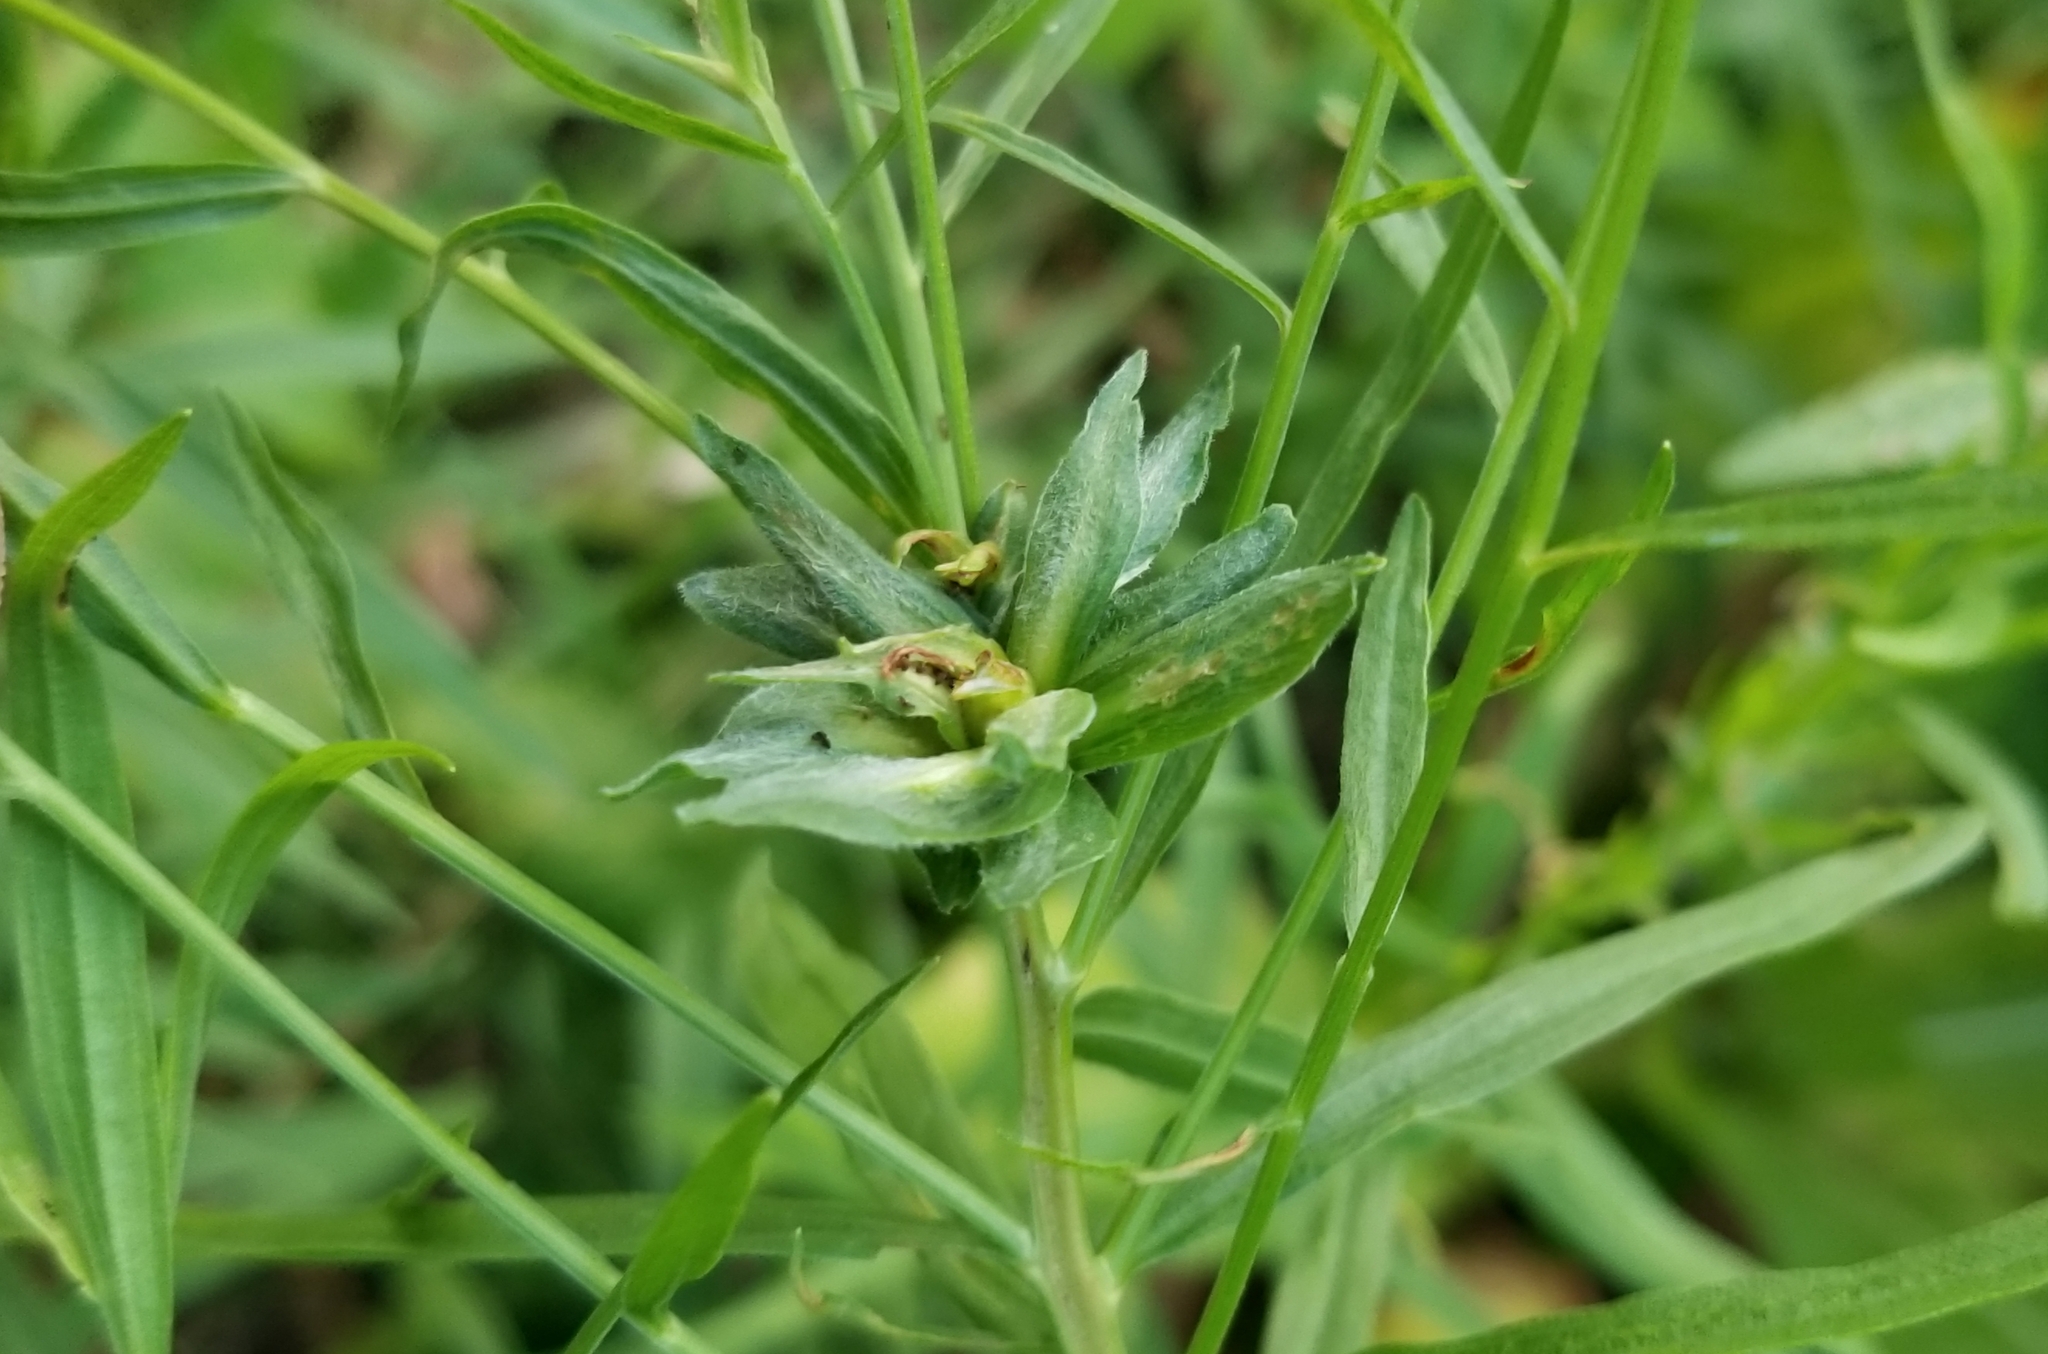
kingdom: Animalia
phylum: Arthropoda
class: Insecta
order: Diptera
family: Cecidomyiidae
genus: Asphondylia
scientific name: Asphondylia pseudorosa
